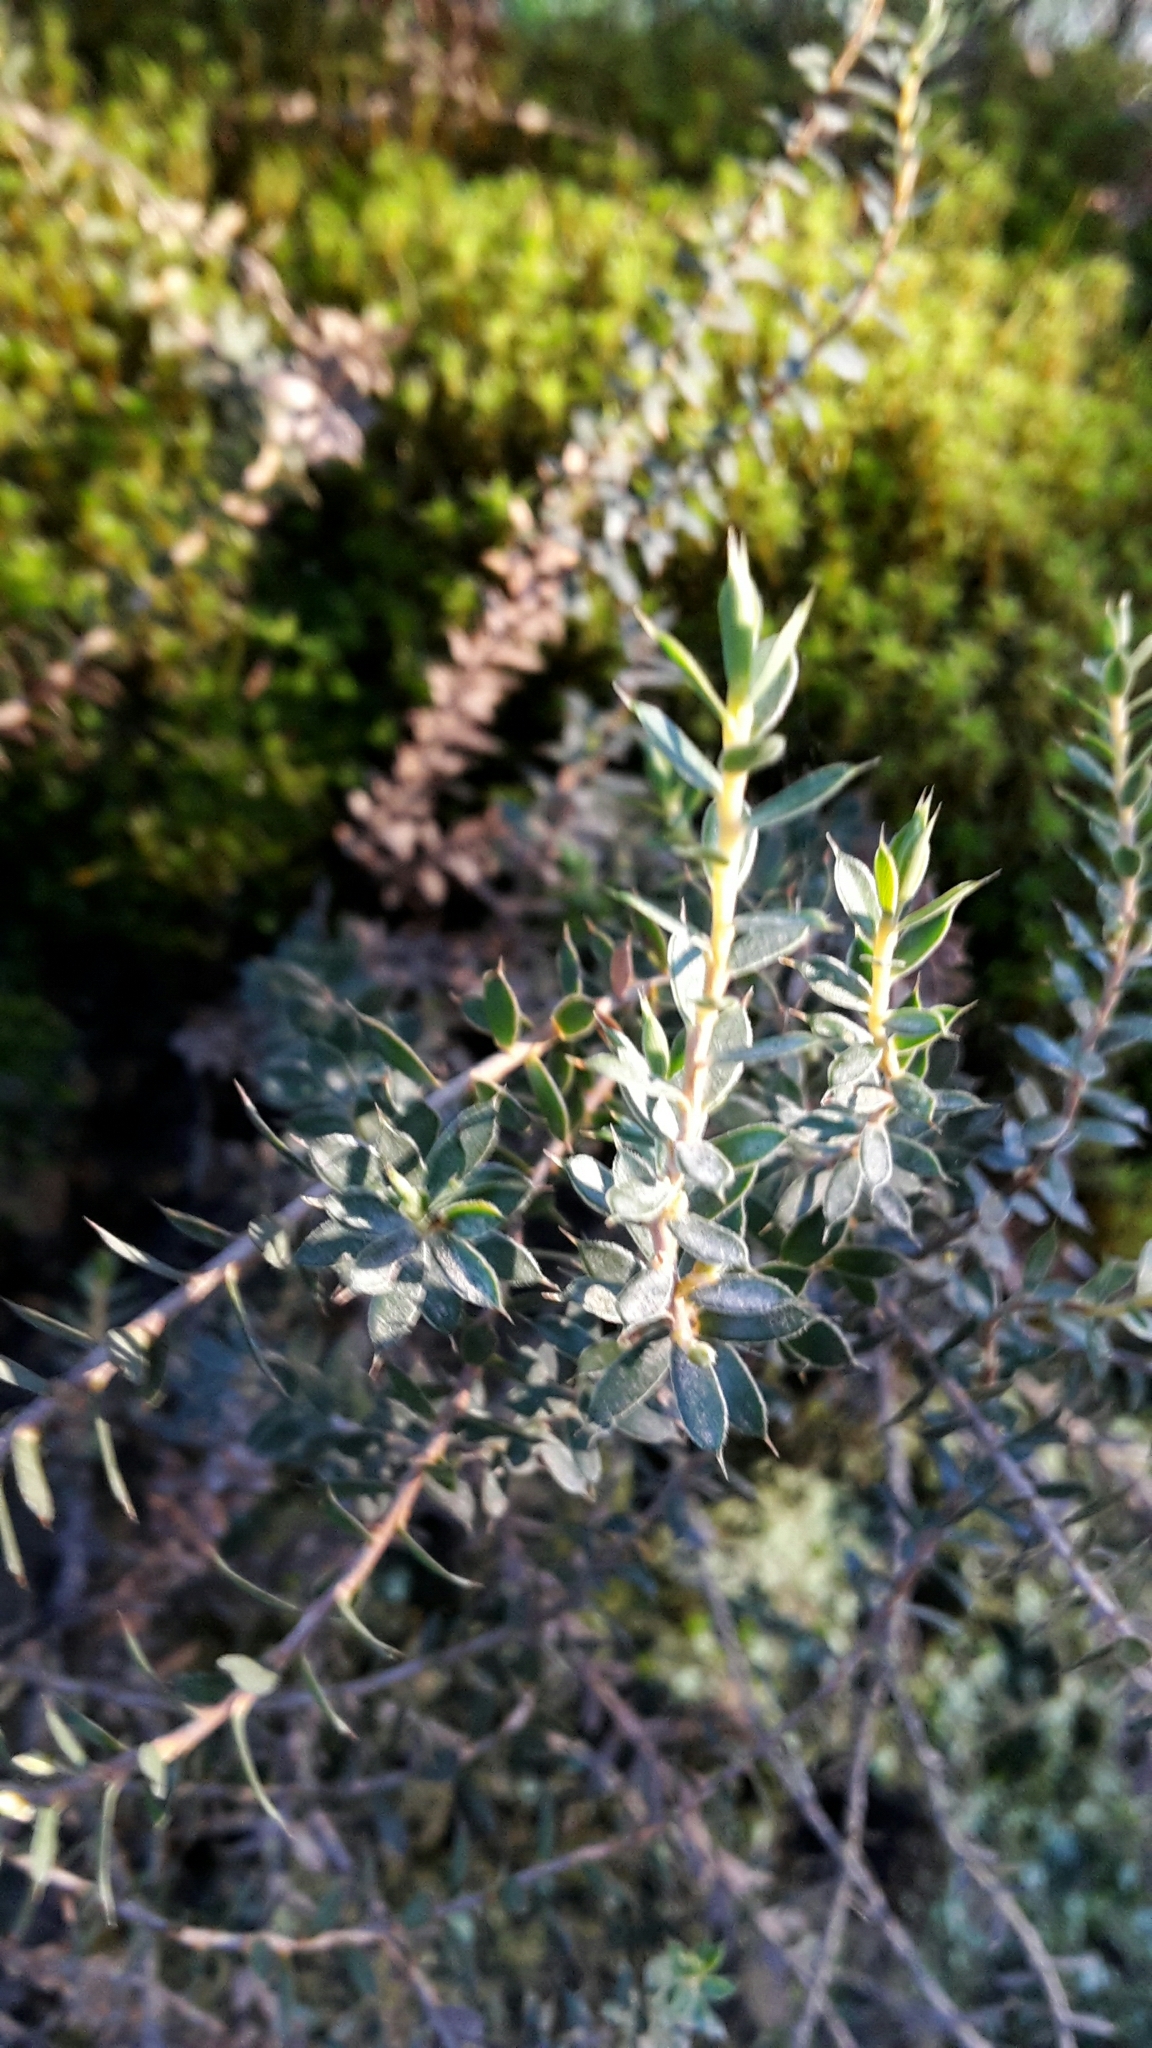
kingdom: Plantae
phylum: Tracheophyta
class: Magnoliopsida
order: Ericales
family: Ericaceae
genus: Styphelia
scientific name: Styphelia nesophila
